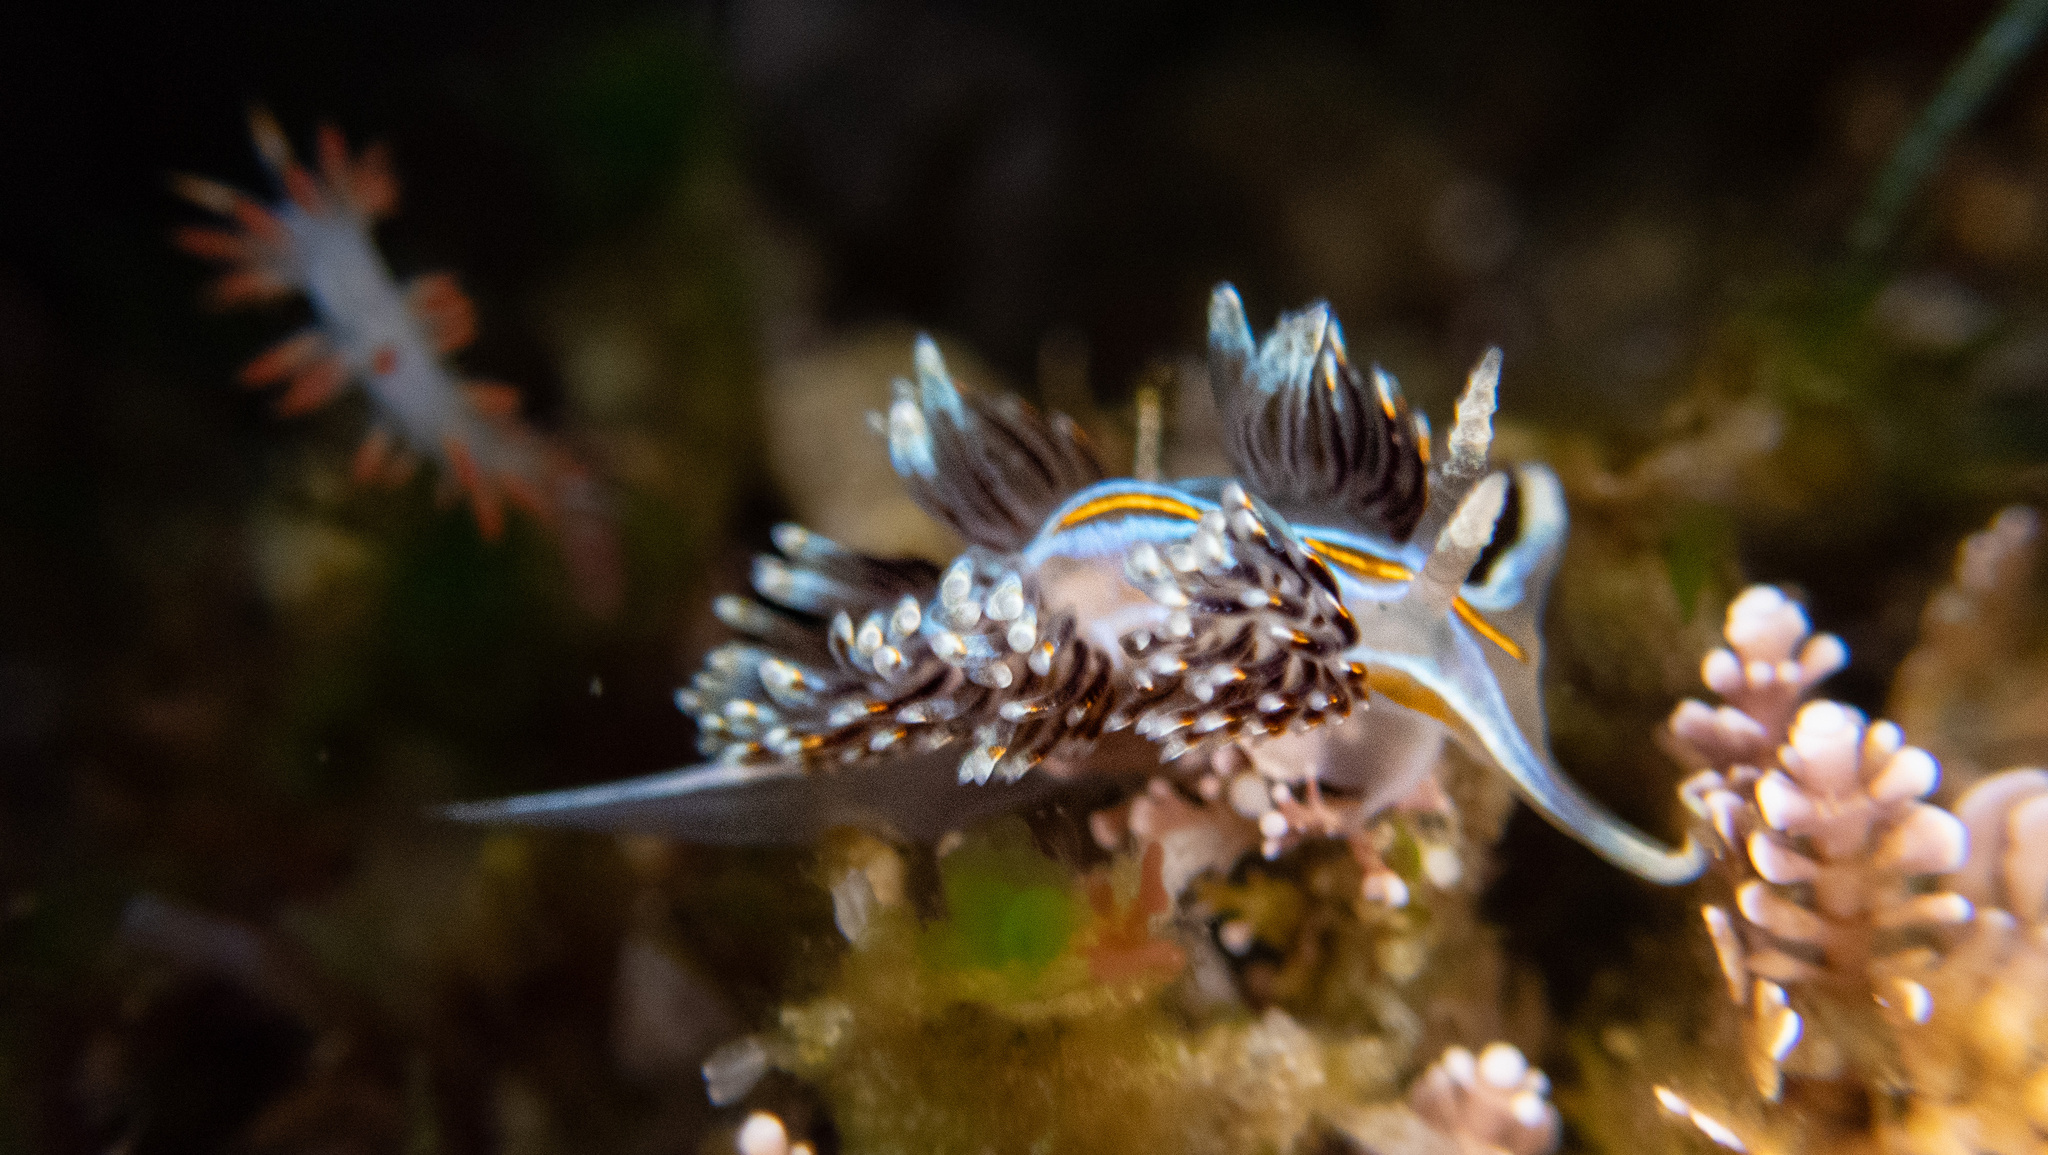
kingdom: Animalia
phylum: Mollusca
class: Gastropoda
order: Nudibranchia
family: Myrrhinidae
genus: Hermissenda
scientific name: Hermissenda opalescens
